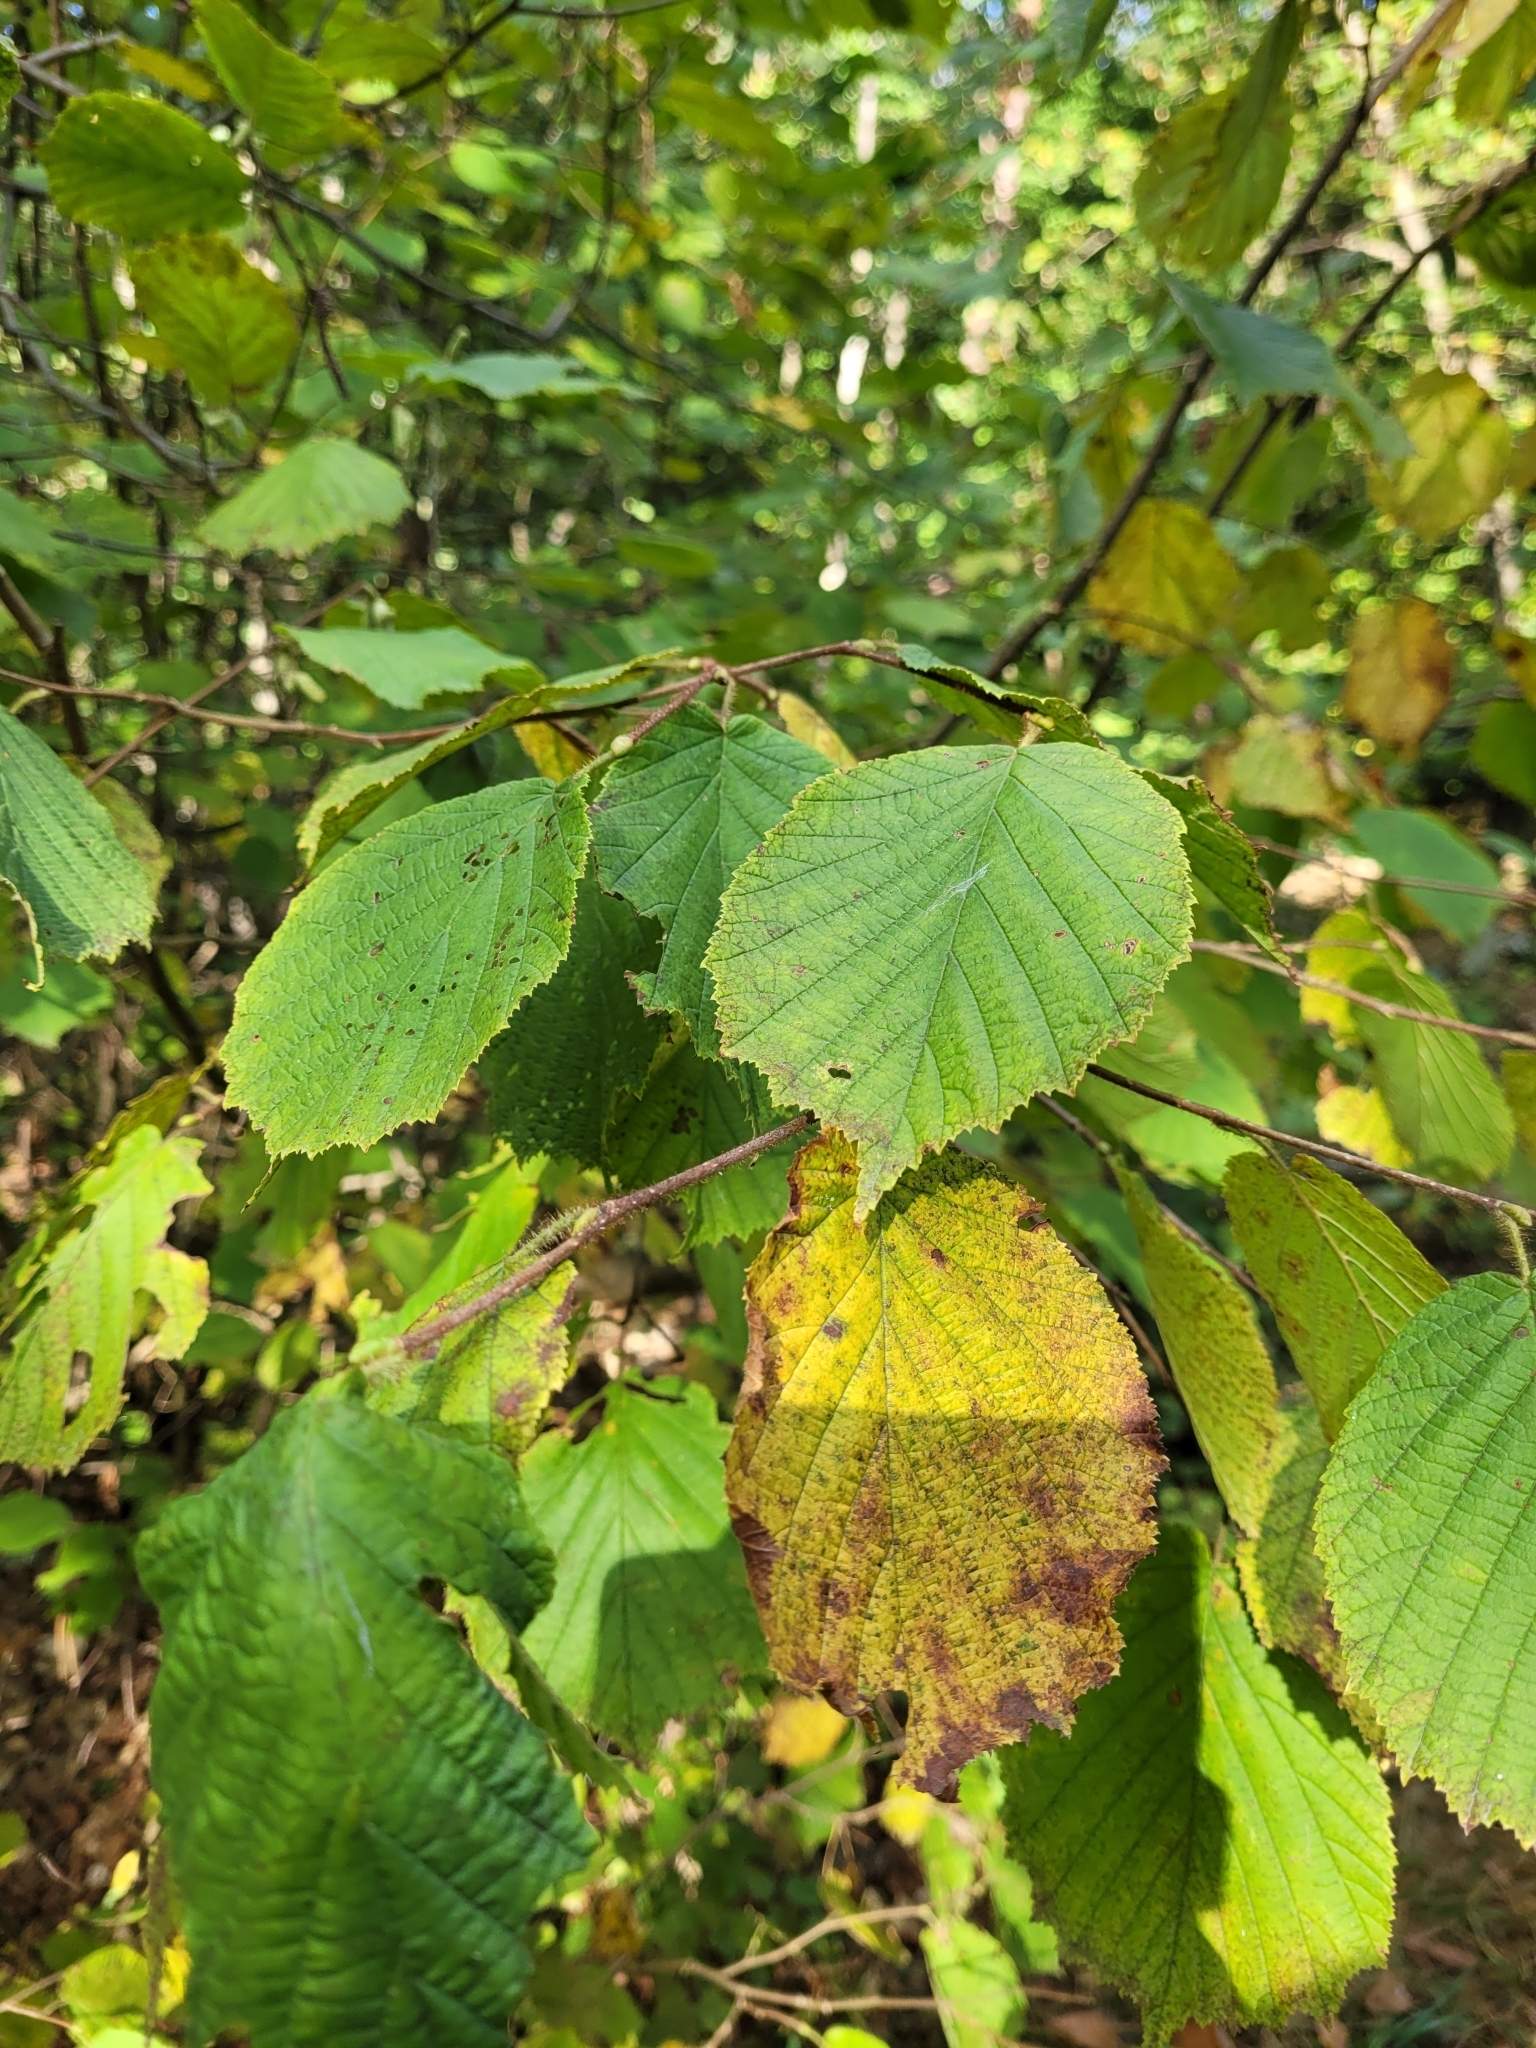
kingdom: Plantae
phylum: Tracheophyta
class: Magnoliopsida
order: Fagales
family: Betulaceae
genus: Corylus
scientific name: Corylus avellana
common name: European hazel
